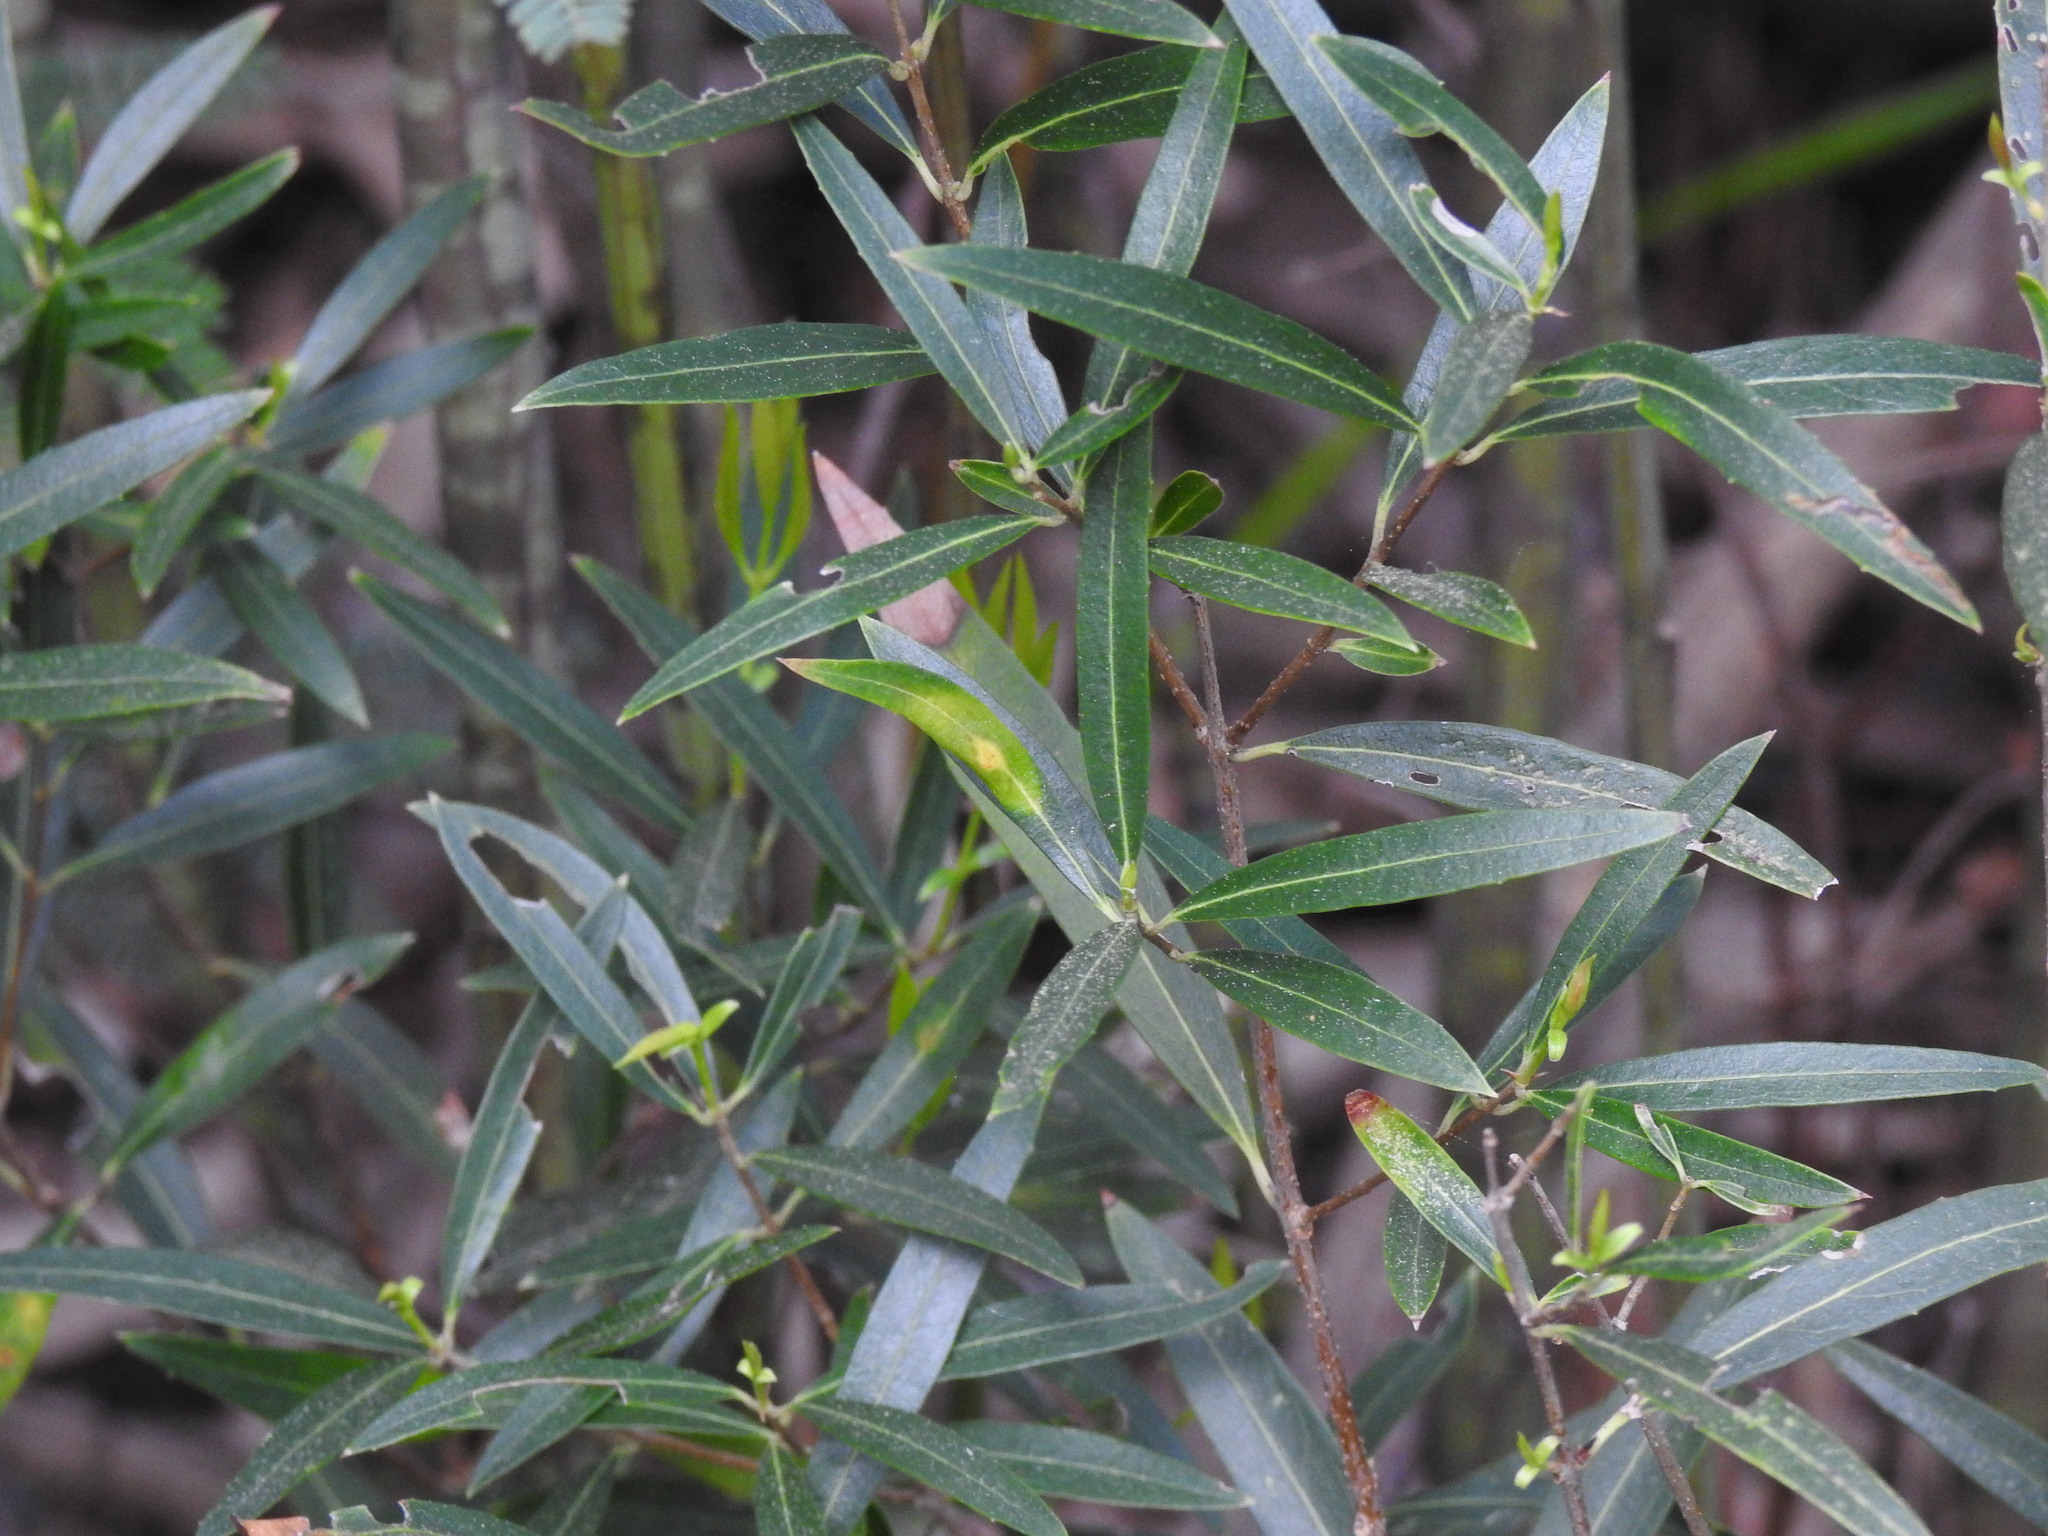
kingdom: Animalia
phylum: Arthropoda
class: Insecta
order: Diptera
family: Cecidomyiidae
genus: Braueriella
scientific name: Braueriella phillyreae
